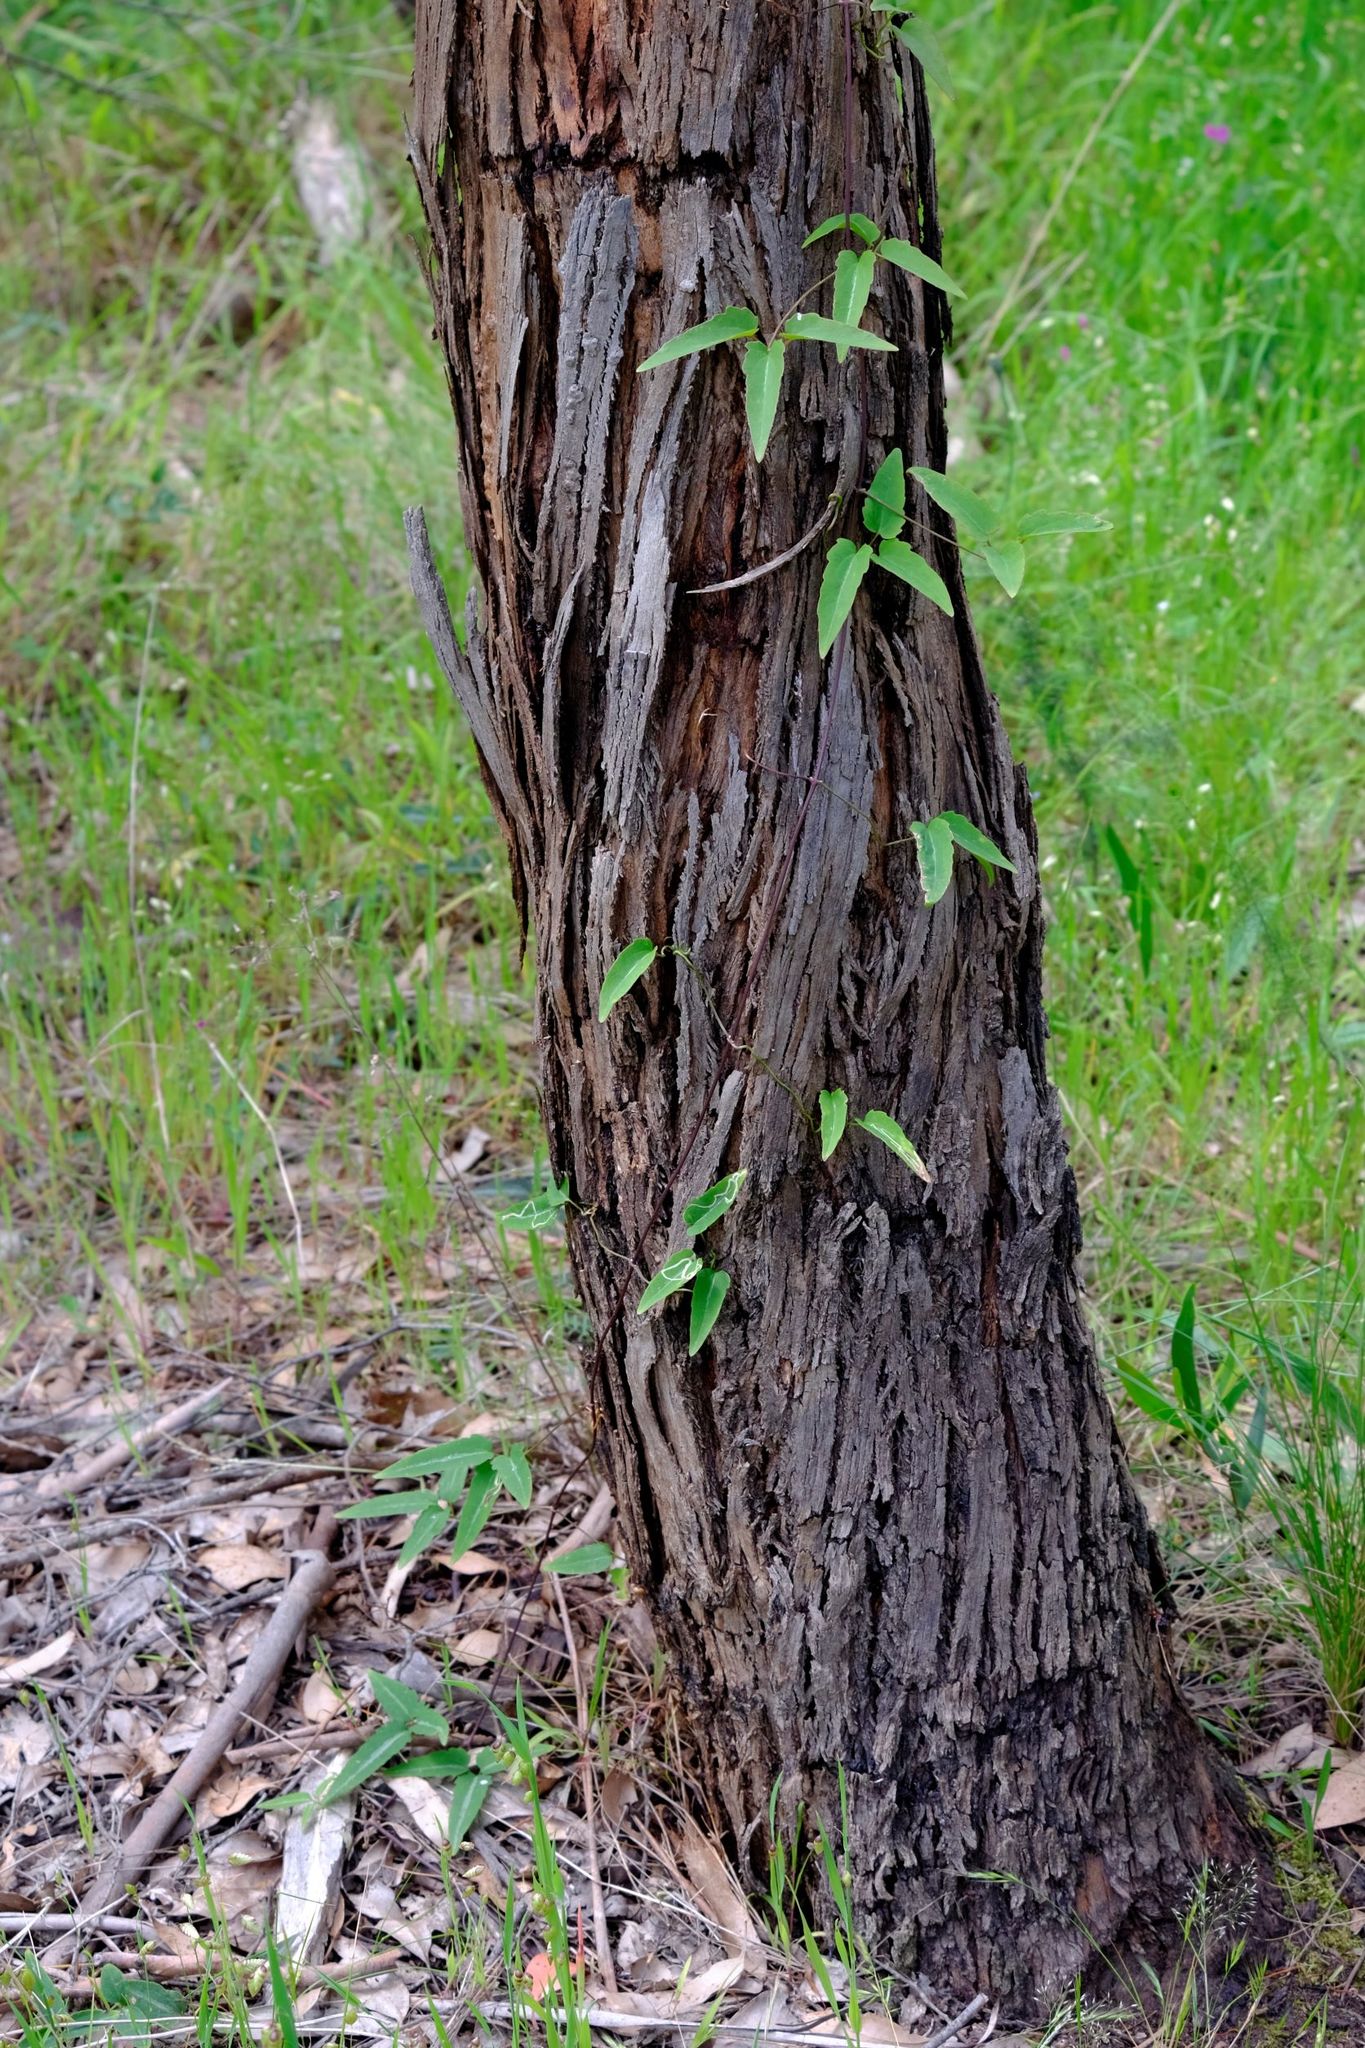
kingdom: Plantae
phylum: Tracheophyta
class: Magnoliopsida
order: Ranunculales
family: Ranunculaceae
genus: Clematis
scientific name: Clematis aristata
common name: Mountain clematis
